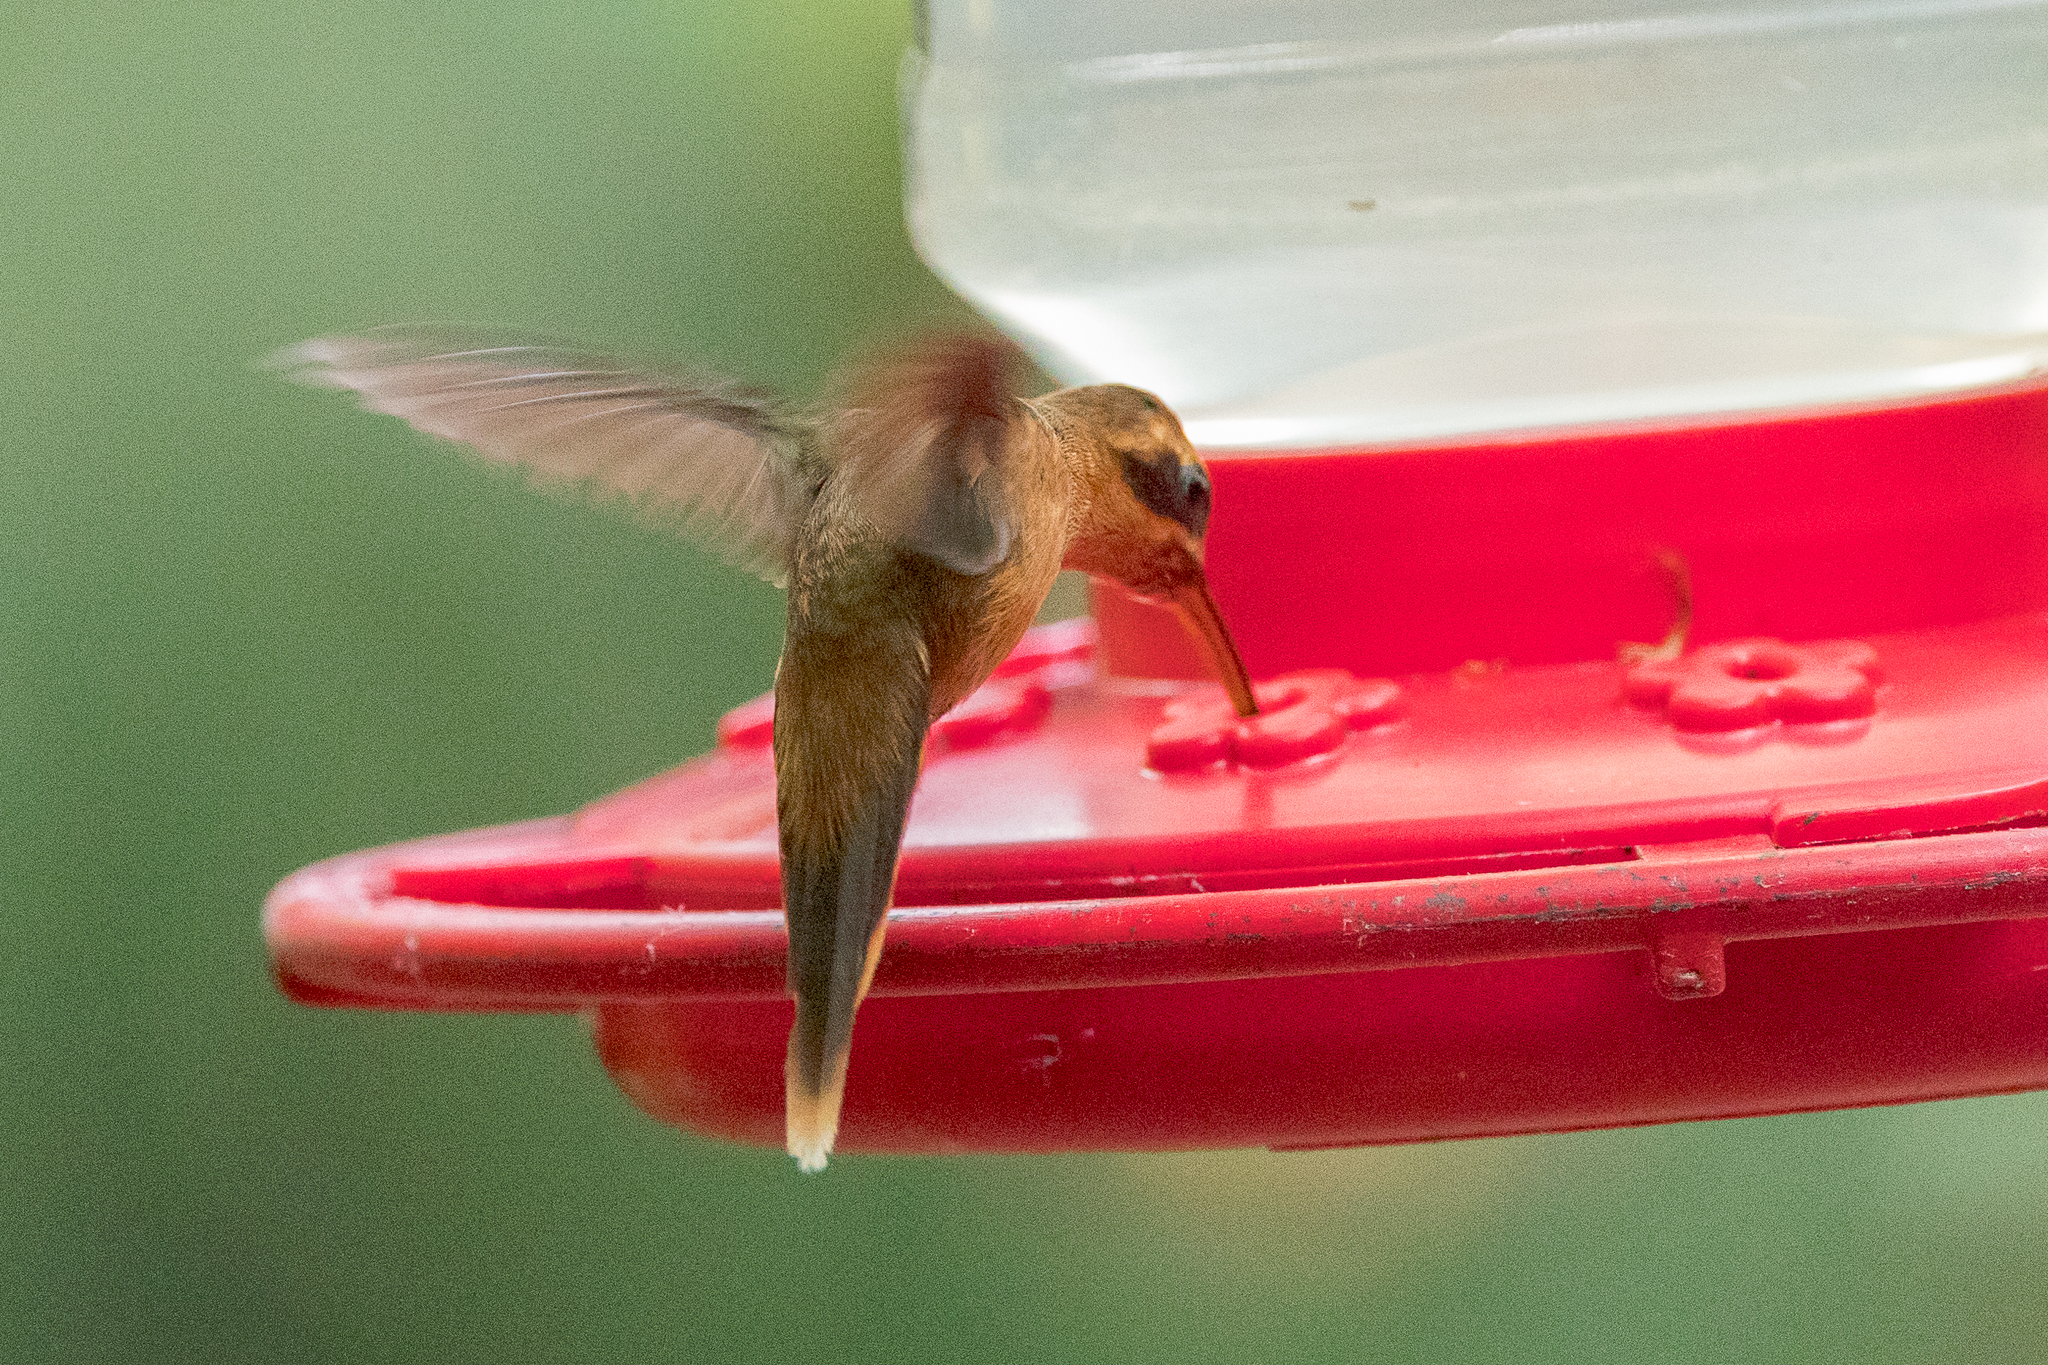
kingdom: Animalia
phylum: Chordata
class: Aves
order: Apodiformes
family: Trochilidae
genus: Phaethornis
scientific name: Phaethornis striigularis
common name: Stripe-throated hermit
